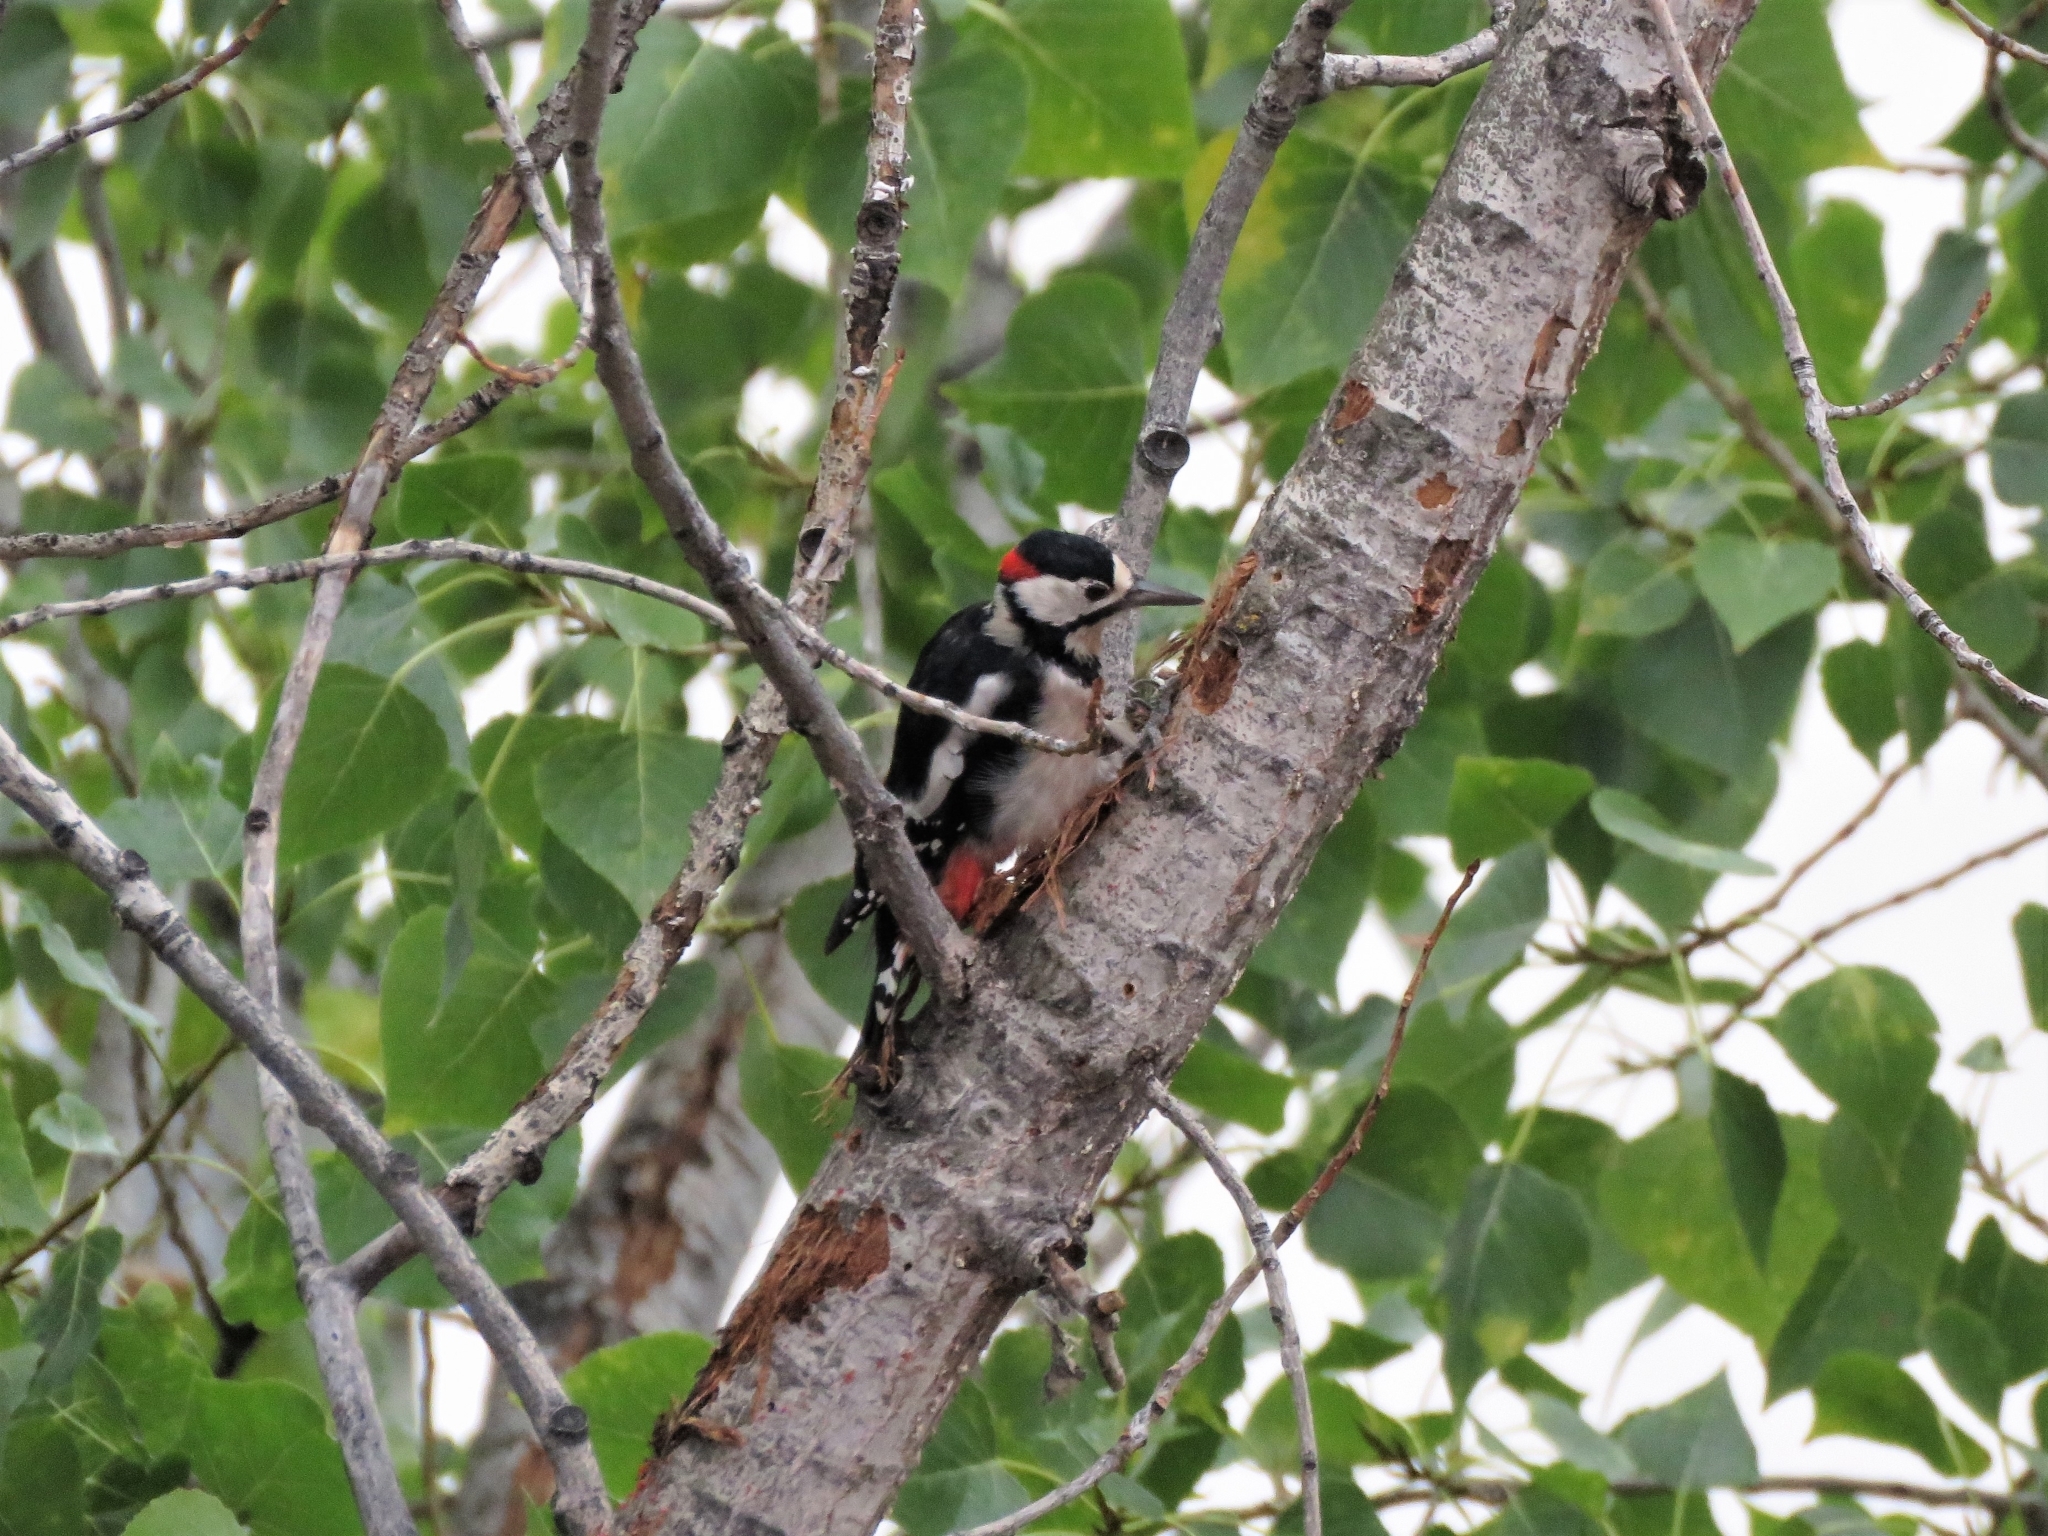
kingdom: Animalia
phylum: Chordata
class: Aves
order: Piciformes
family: Picidae
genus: Dendrocopos
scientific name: Dendrocopos major
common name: Great spotted woodpecker
